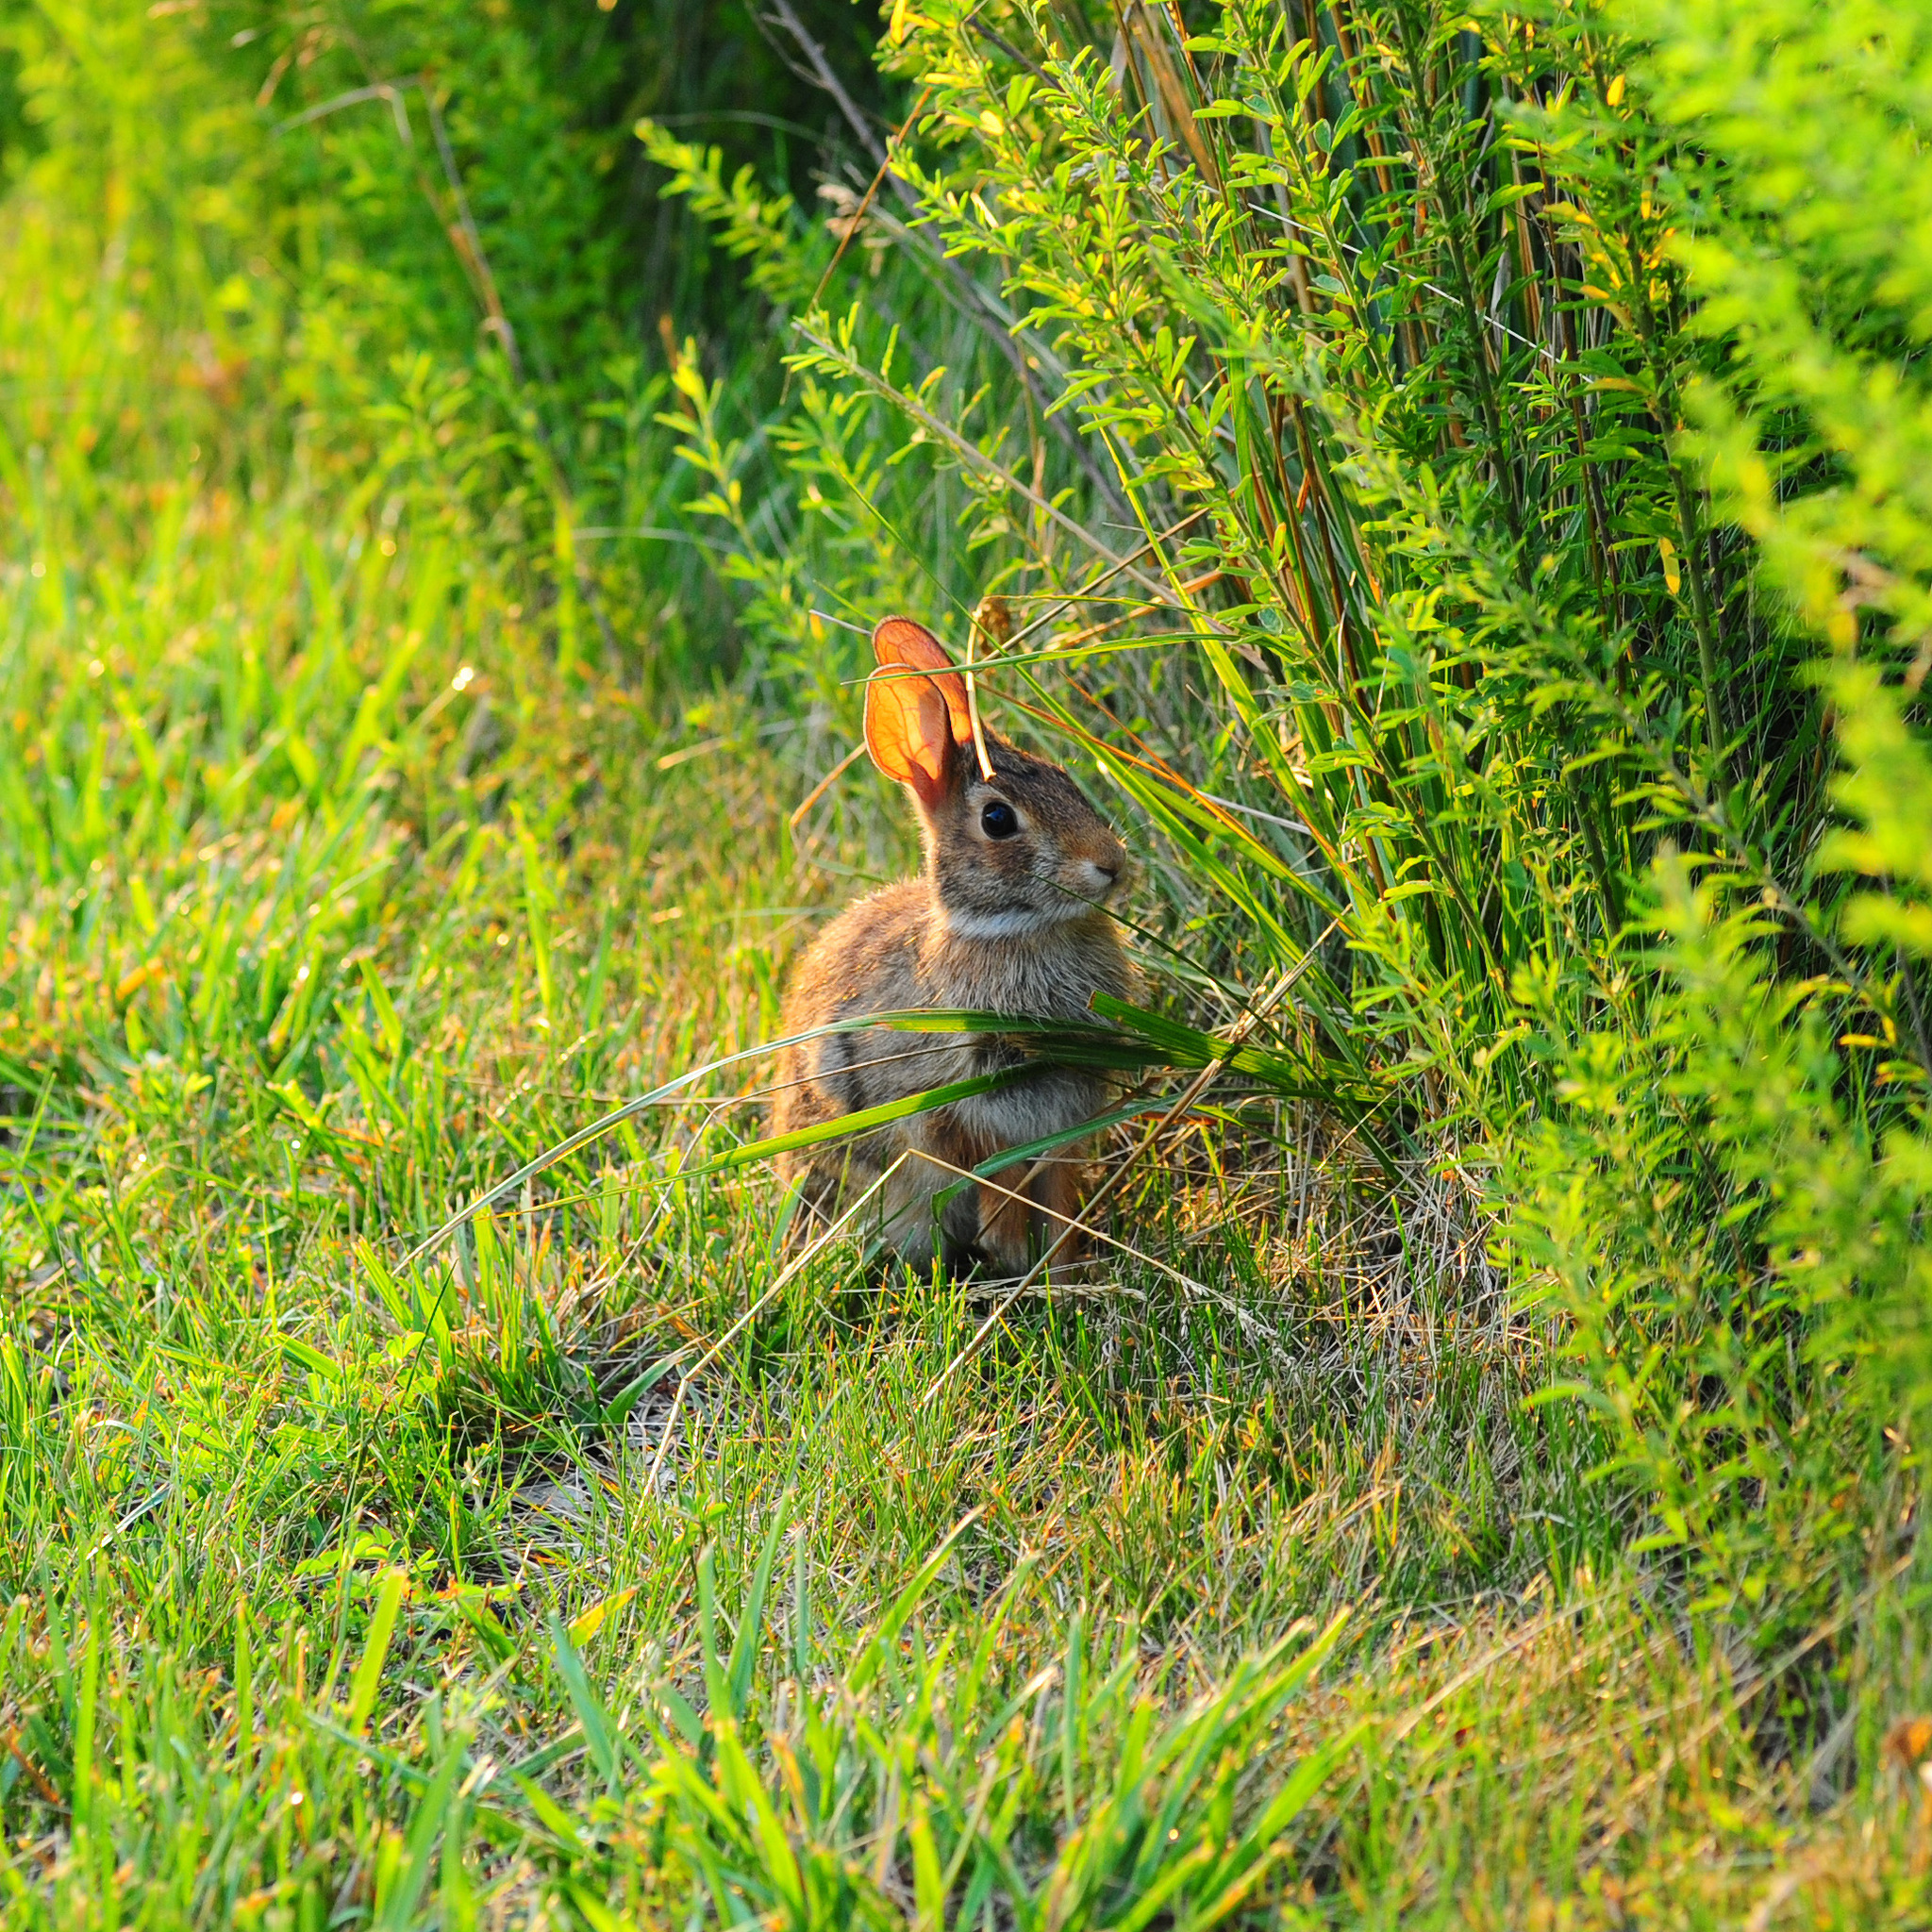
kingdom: Animalia
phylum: Chordata
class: Mammalia
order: Lagomorpha
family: Leporidae
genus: Sylvilagus
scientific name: Sylvilagus floridanus
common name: Eastern cottontail
